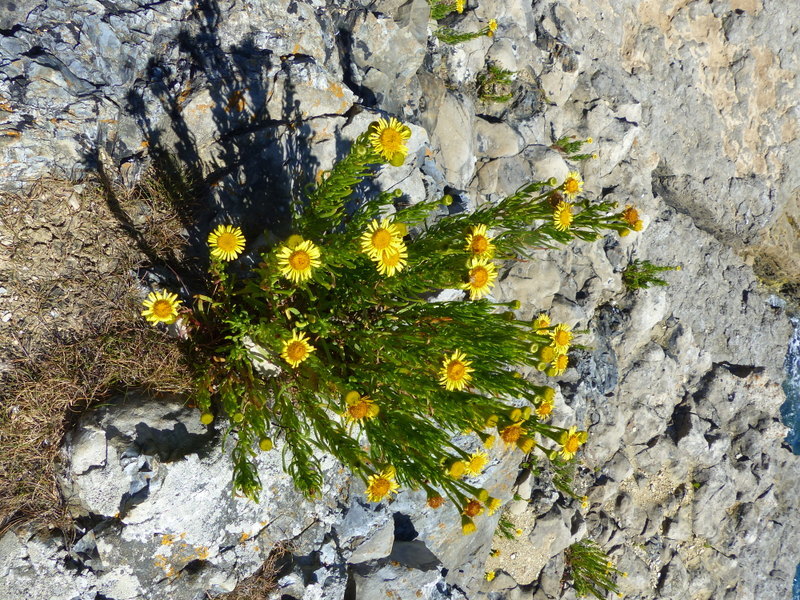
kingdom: Plantae
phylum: Tracheophyta
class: Magnoliopsida
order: Asterales
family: Asteraceae
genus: Limbarda
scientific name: Limbarda crithmoides
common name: Golden samphire
